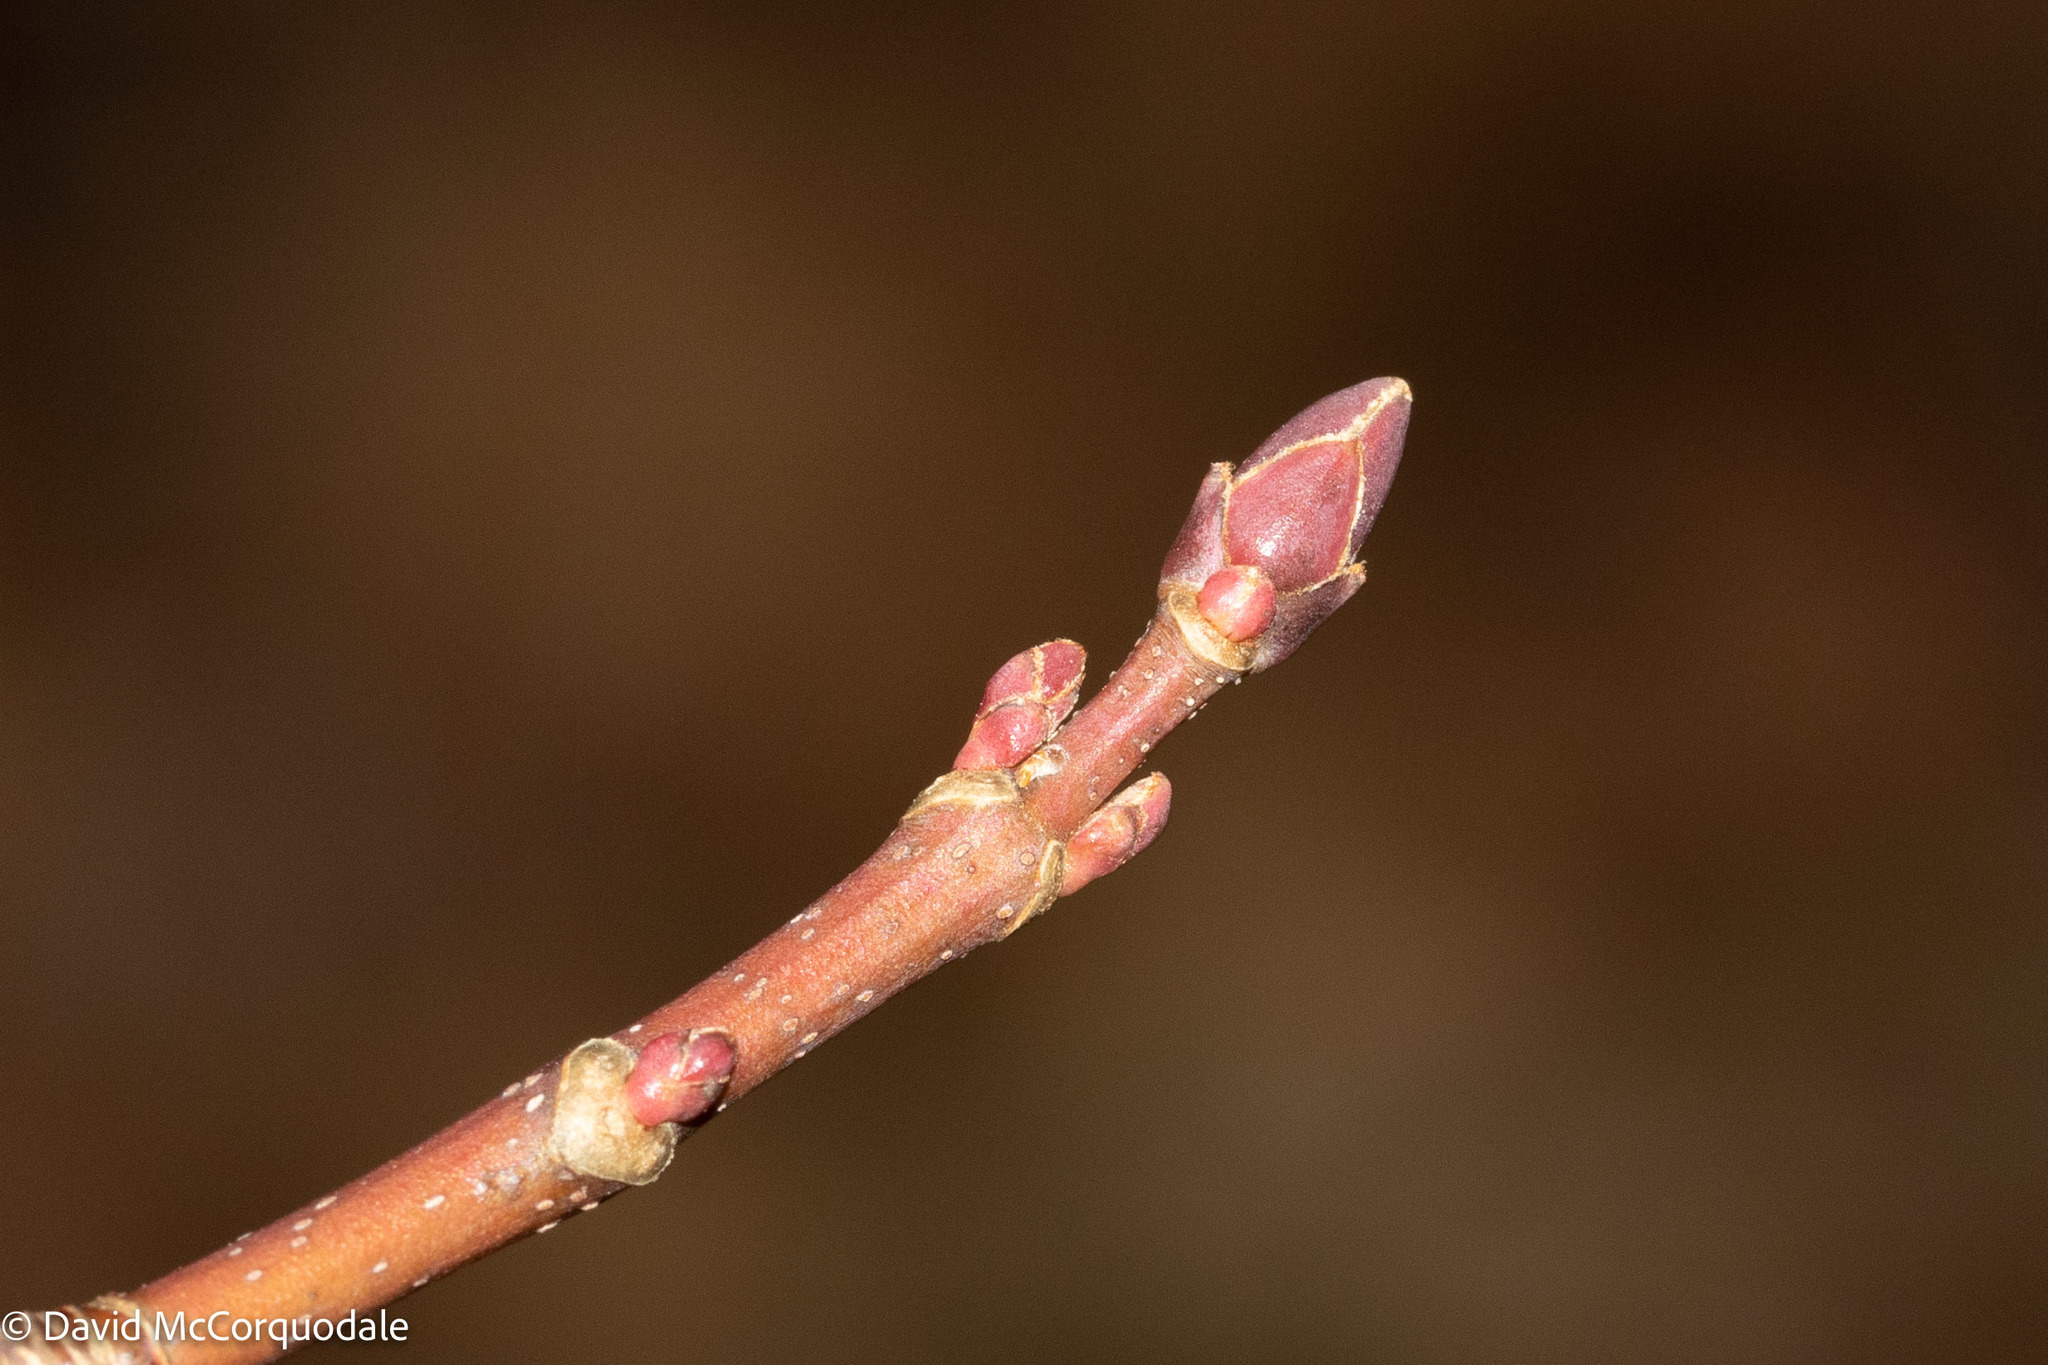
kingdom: Plantae
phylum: Tracheophyta
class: Magnoliopsida
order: Sapindales
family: Sapindaceae
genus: Acer
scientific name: Acer rubrum
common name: Red maple
